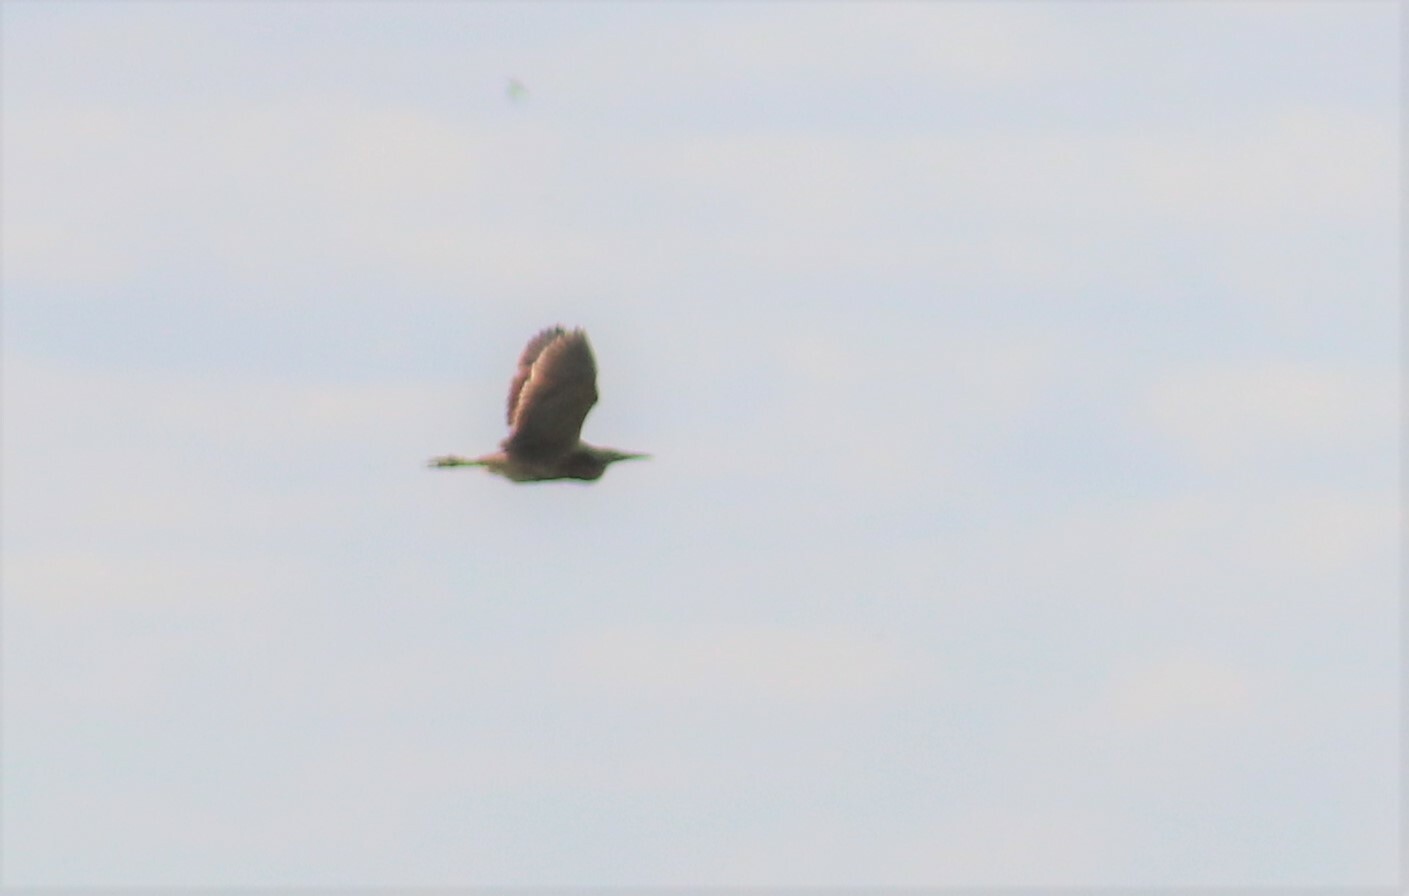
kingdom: Animalia
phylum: Chordata
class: Aves
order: Pelecaniformes
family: Ardeidae
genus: Botaurus
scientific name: Botaurus lentiginosus
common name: American bittern
